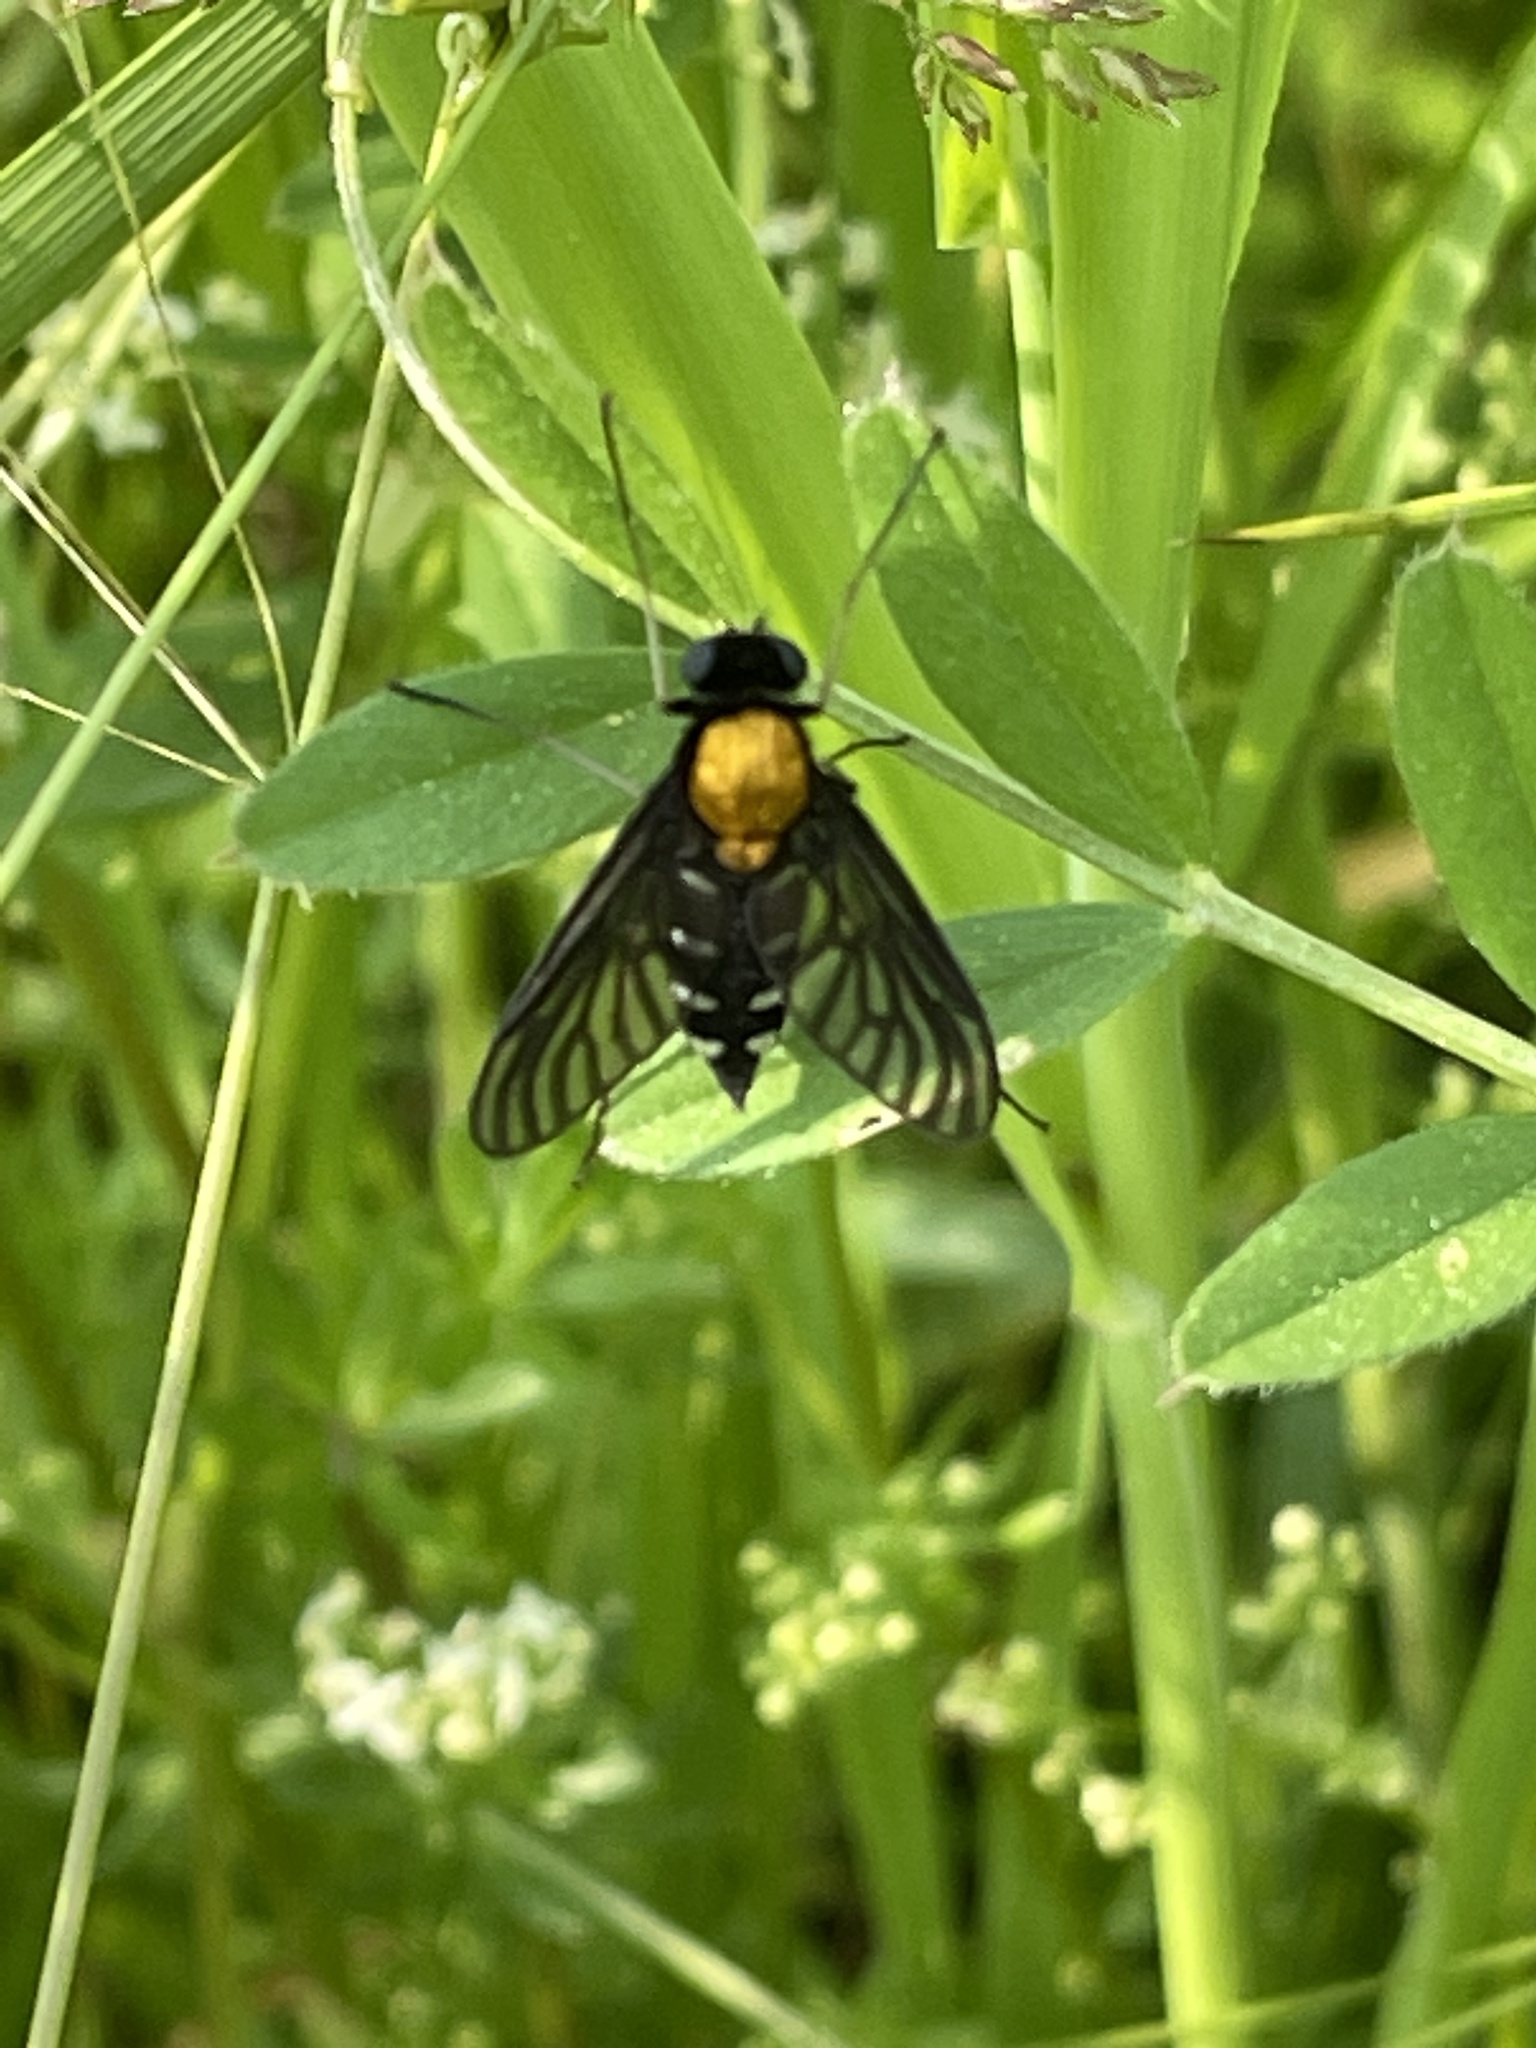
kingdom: Animalia
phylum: Arthropoda
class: Insecta
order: Diptera
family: Rhagionidae
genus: Chrysopilus
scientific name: Chrysopilus thoracicus
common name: Golden-backed snipe fly
